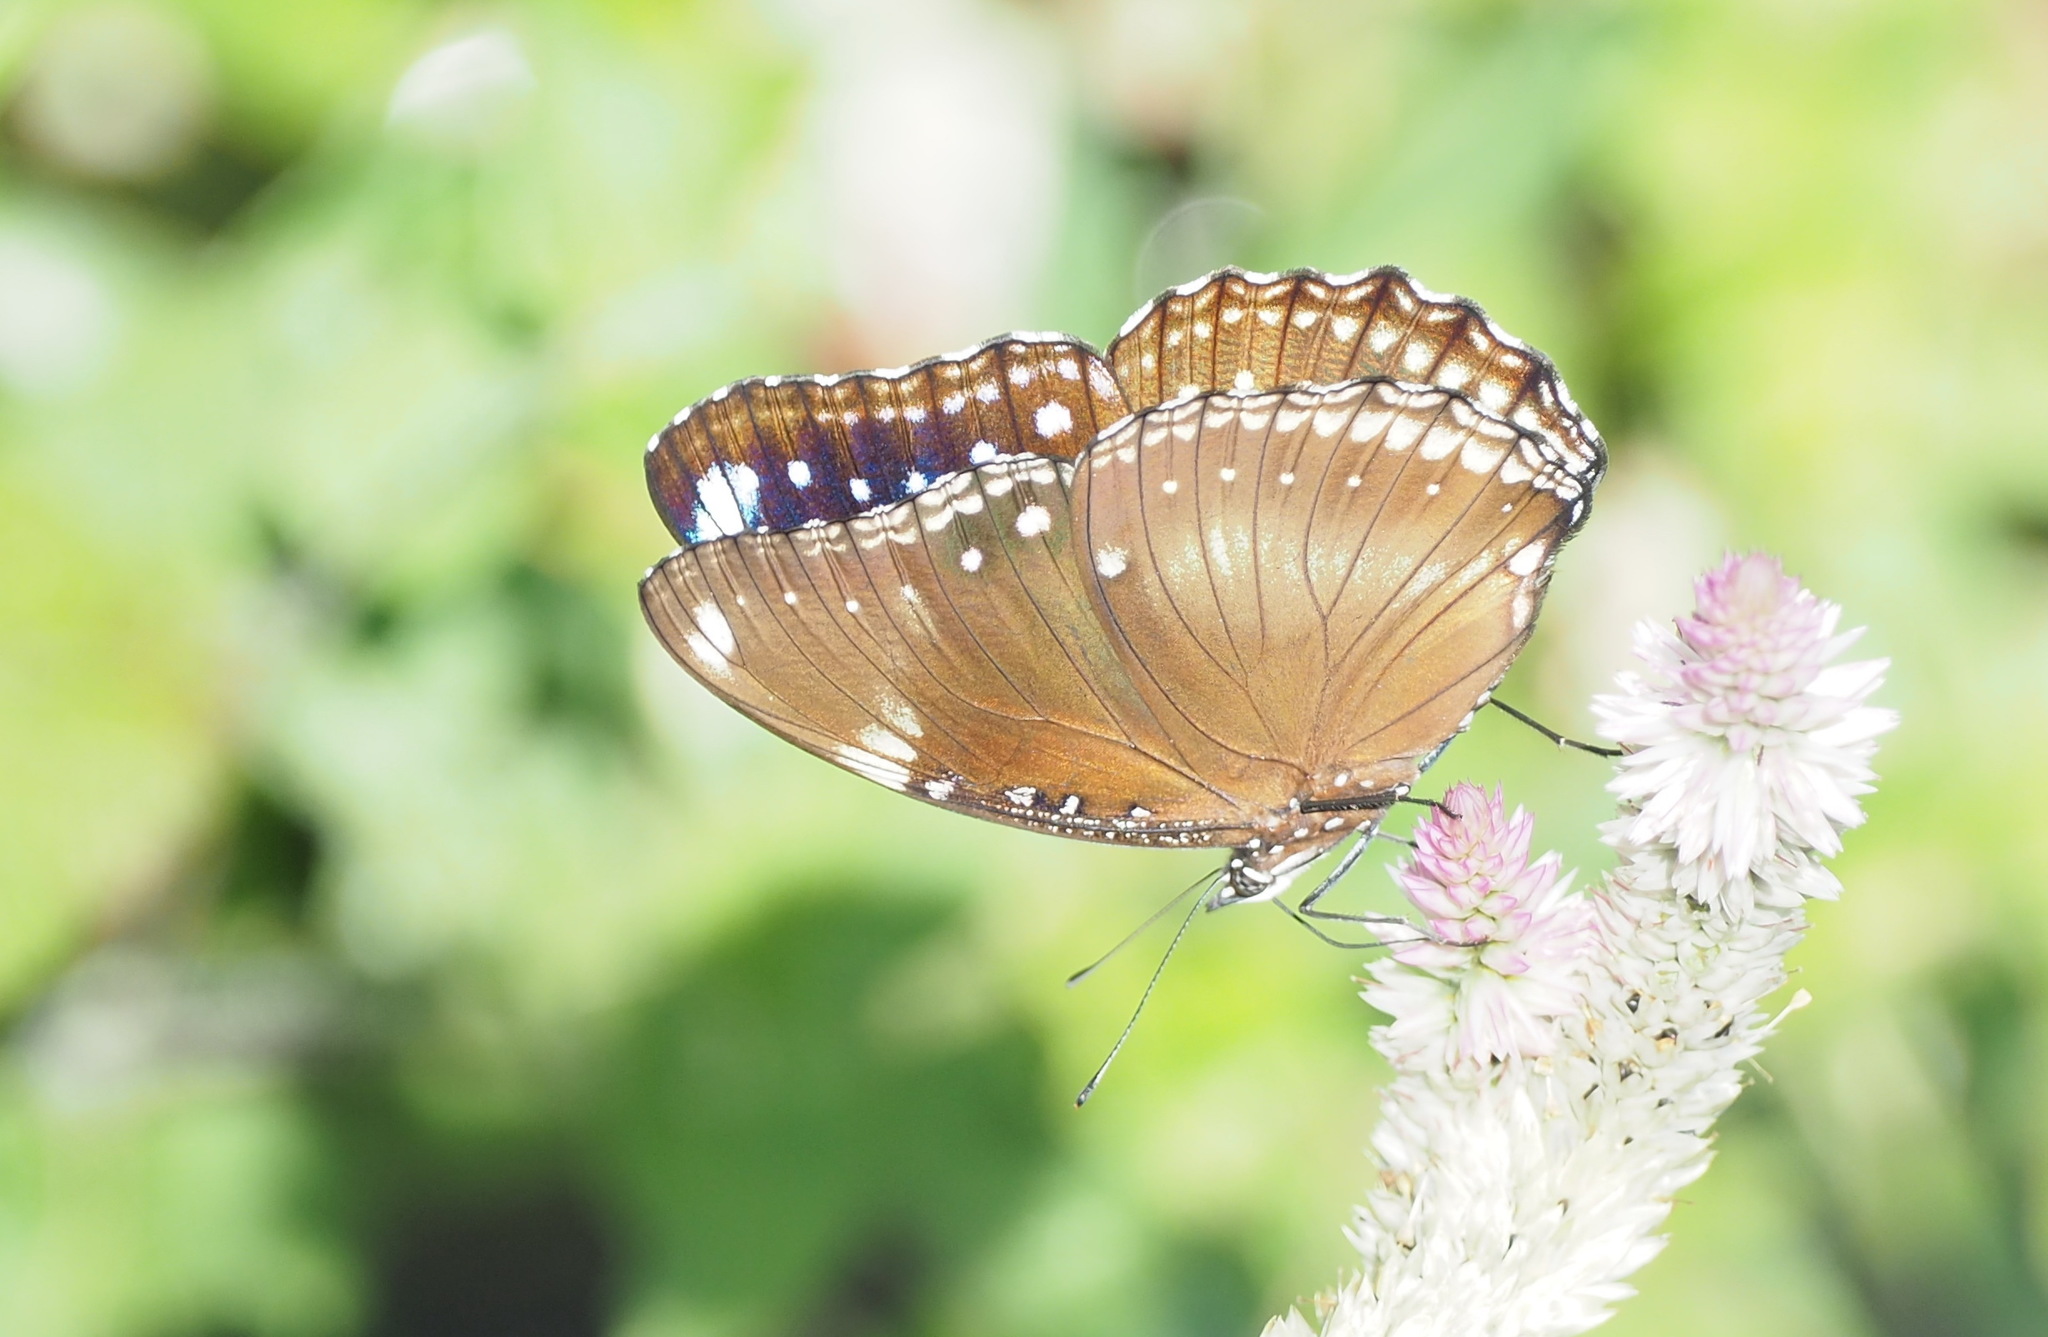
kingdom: Animalia
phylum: Arthropoda
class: Insecta
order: Lepidoptera
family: Nymphalidae
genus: Hypolimnas
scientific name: Hypolimnas bolina
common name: Great eggfly
